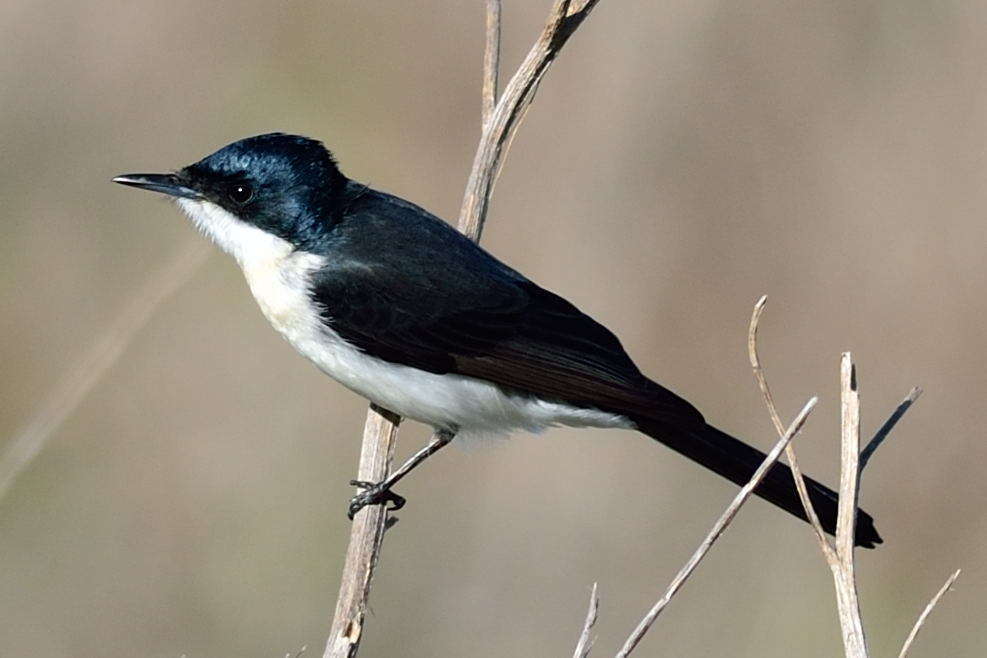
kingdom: Animalia
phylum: Chordata
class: Aves
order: Passeriformes
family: Monarchidae
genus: Myiagra
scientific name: Myiagra inquieta
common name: Restless flycatcher
